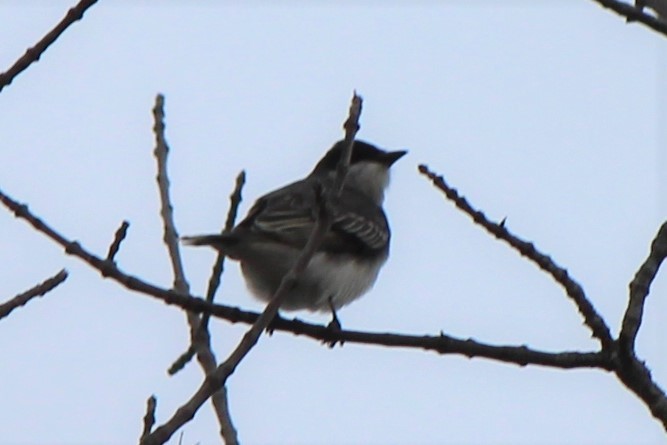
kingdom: Animalia
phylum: Chordata
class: Aves
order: Passeriformes
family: Tyrannidae
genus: Tyrannus
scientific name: Tyrannus tyrannus
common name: Eastern kingbird
